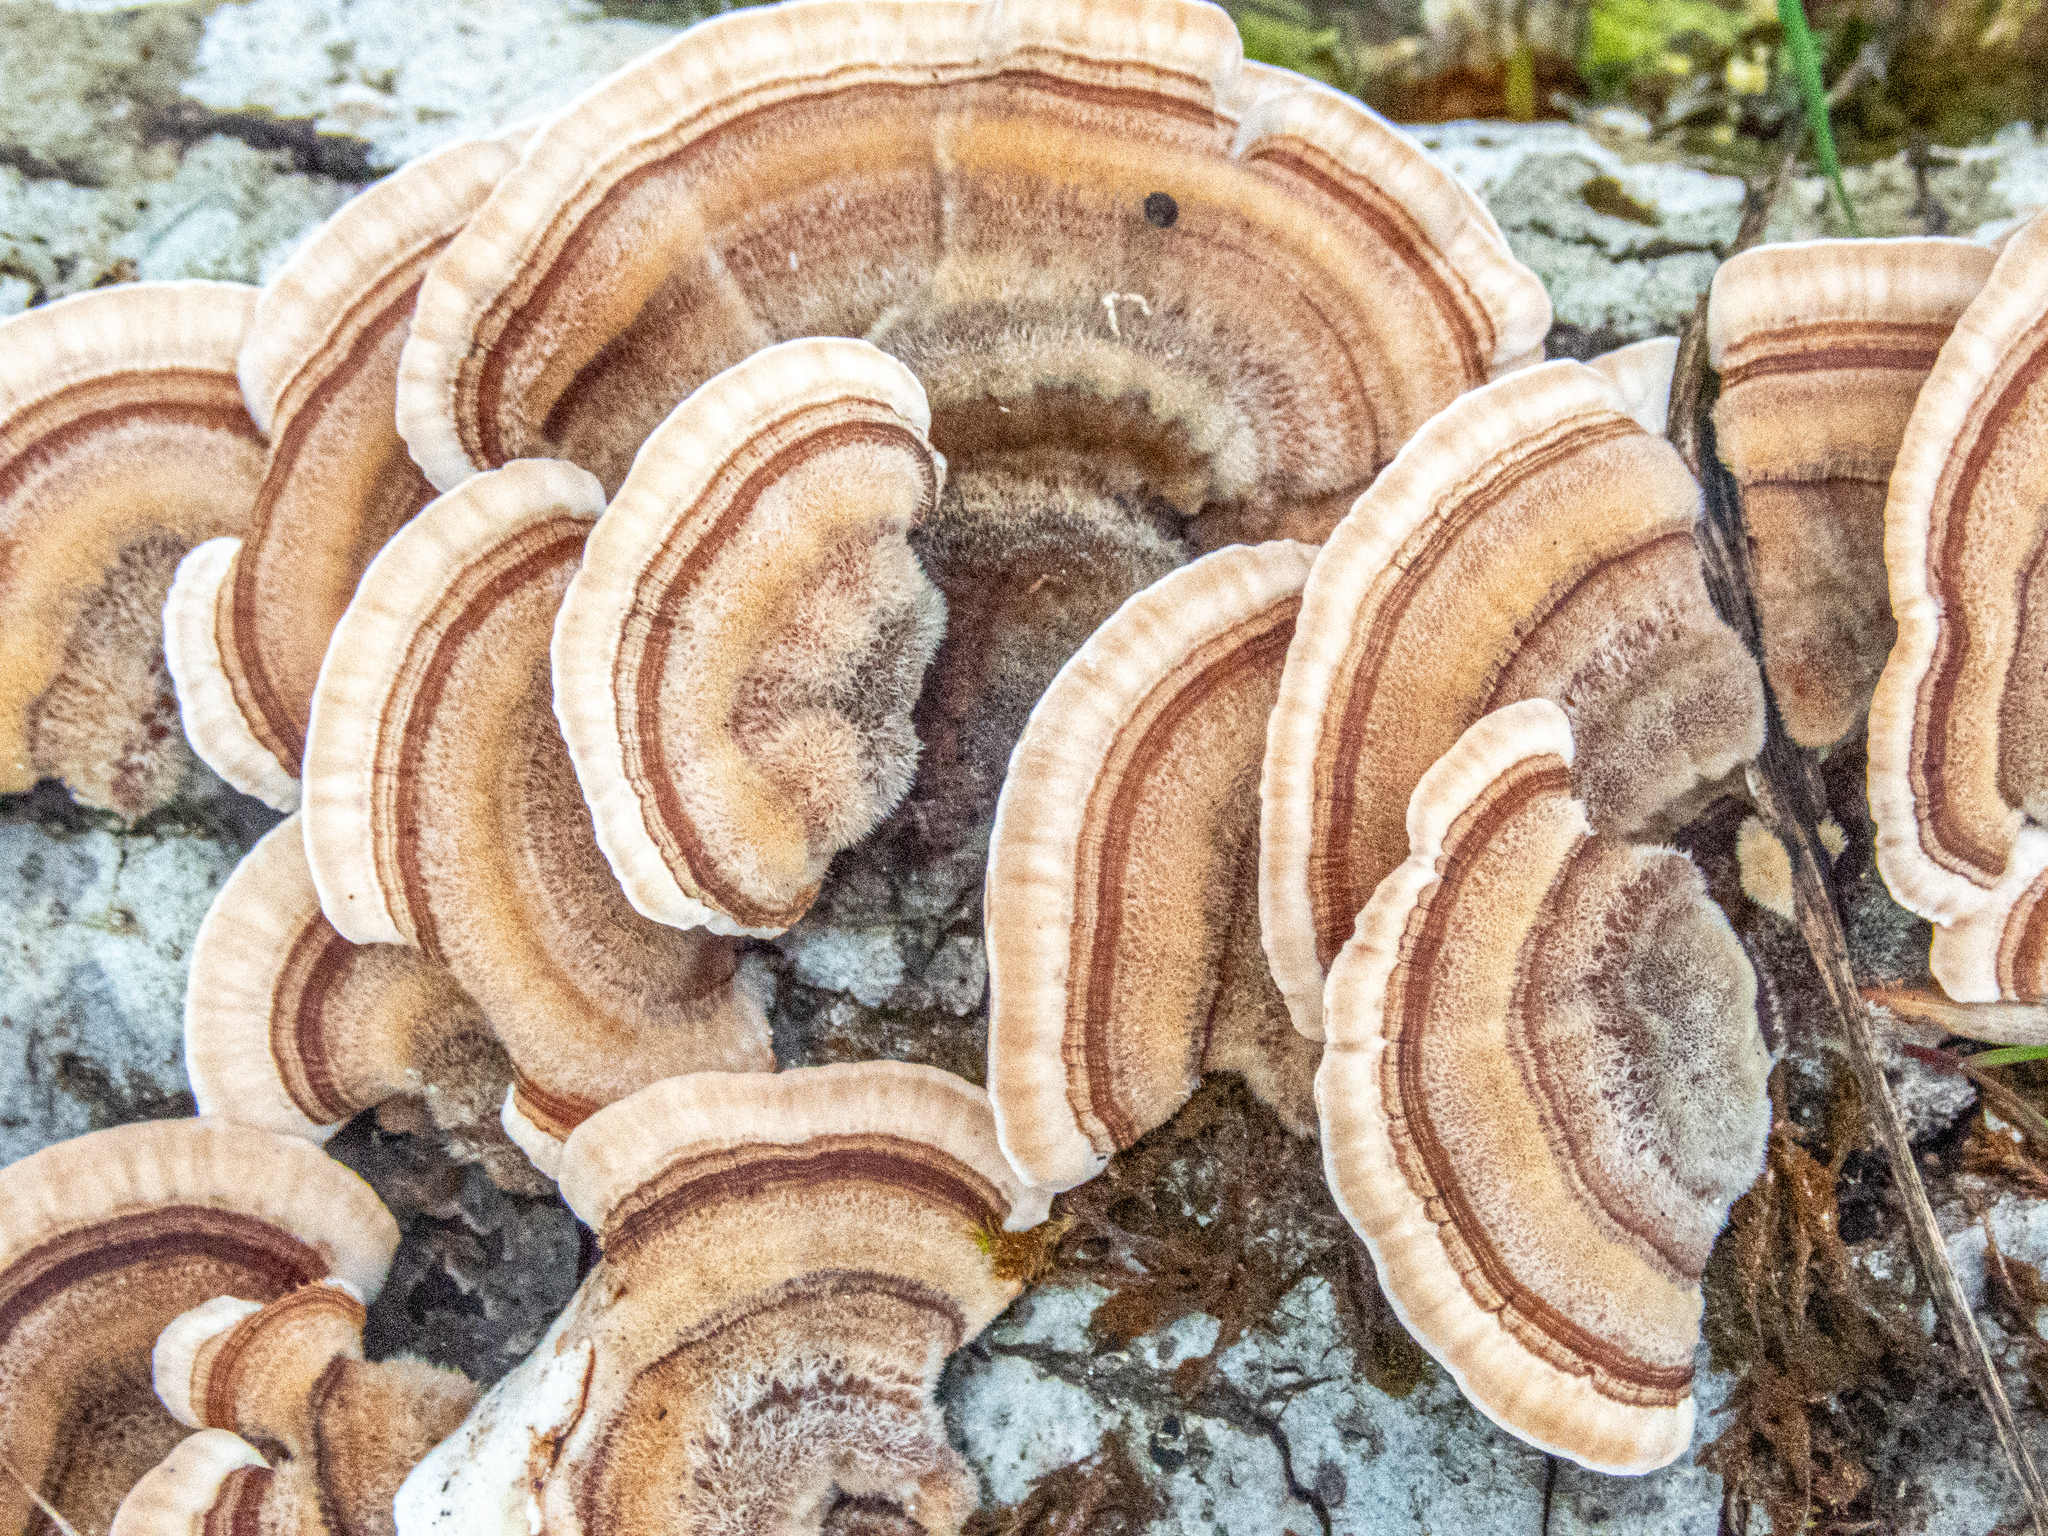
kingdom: Fungi
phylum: Basidiomycota
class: Agaricomycetes
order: Polyporales
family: Polyporaceae
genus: Trametes
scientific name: Trametes versicolor
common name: Turkeytail
